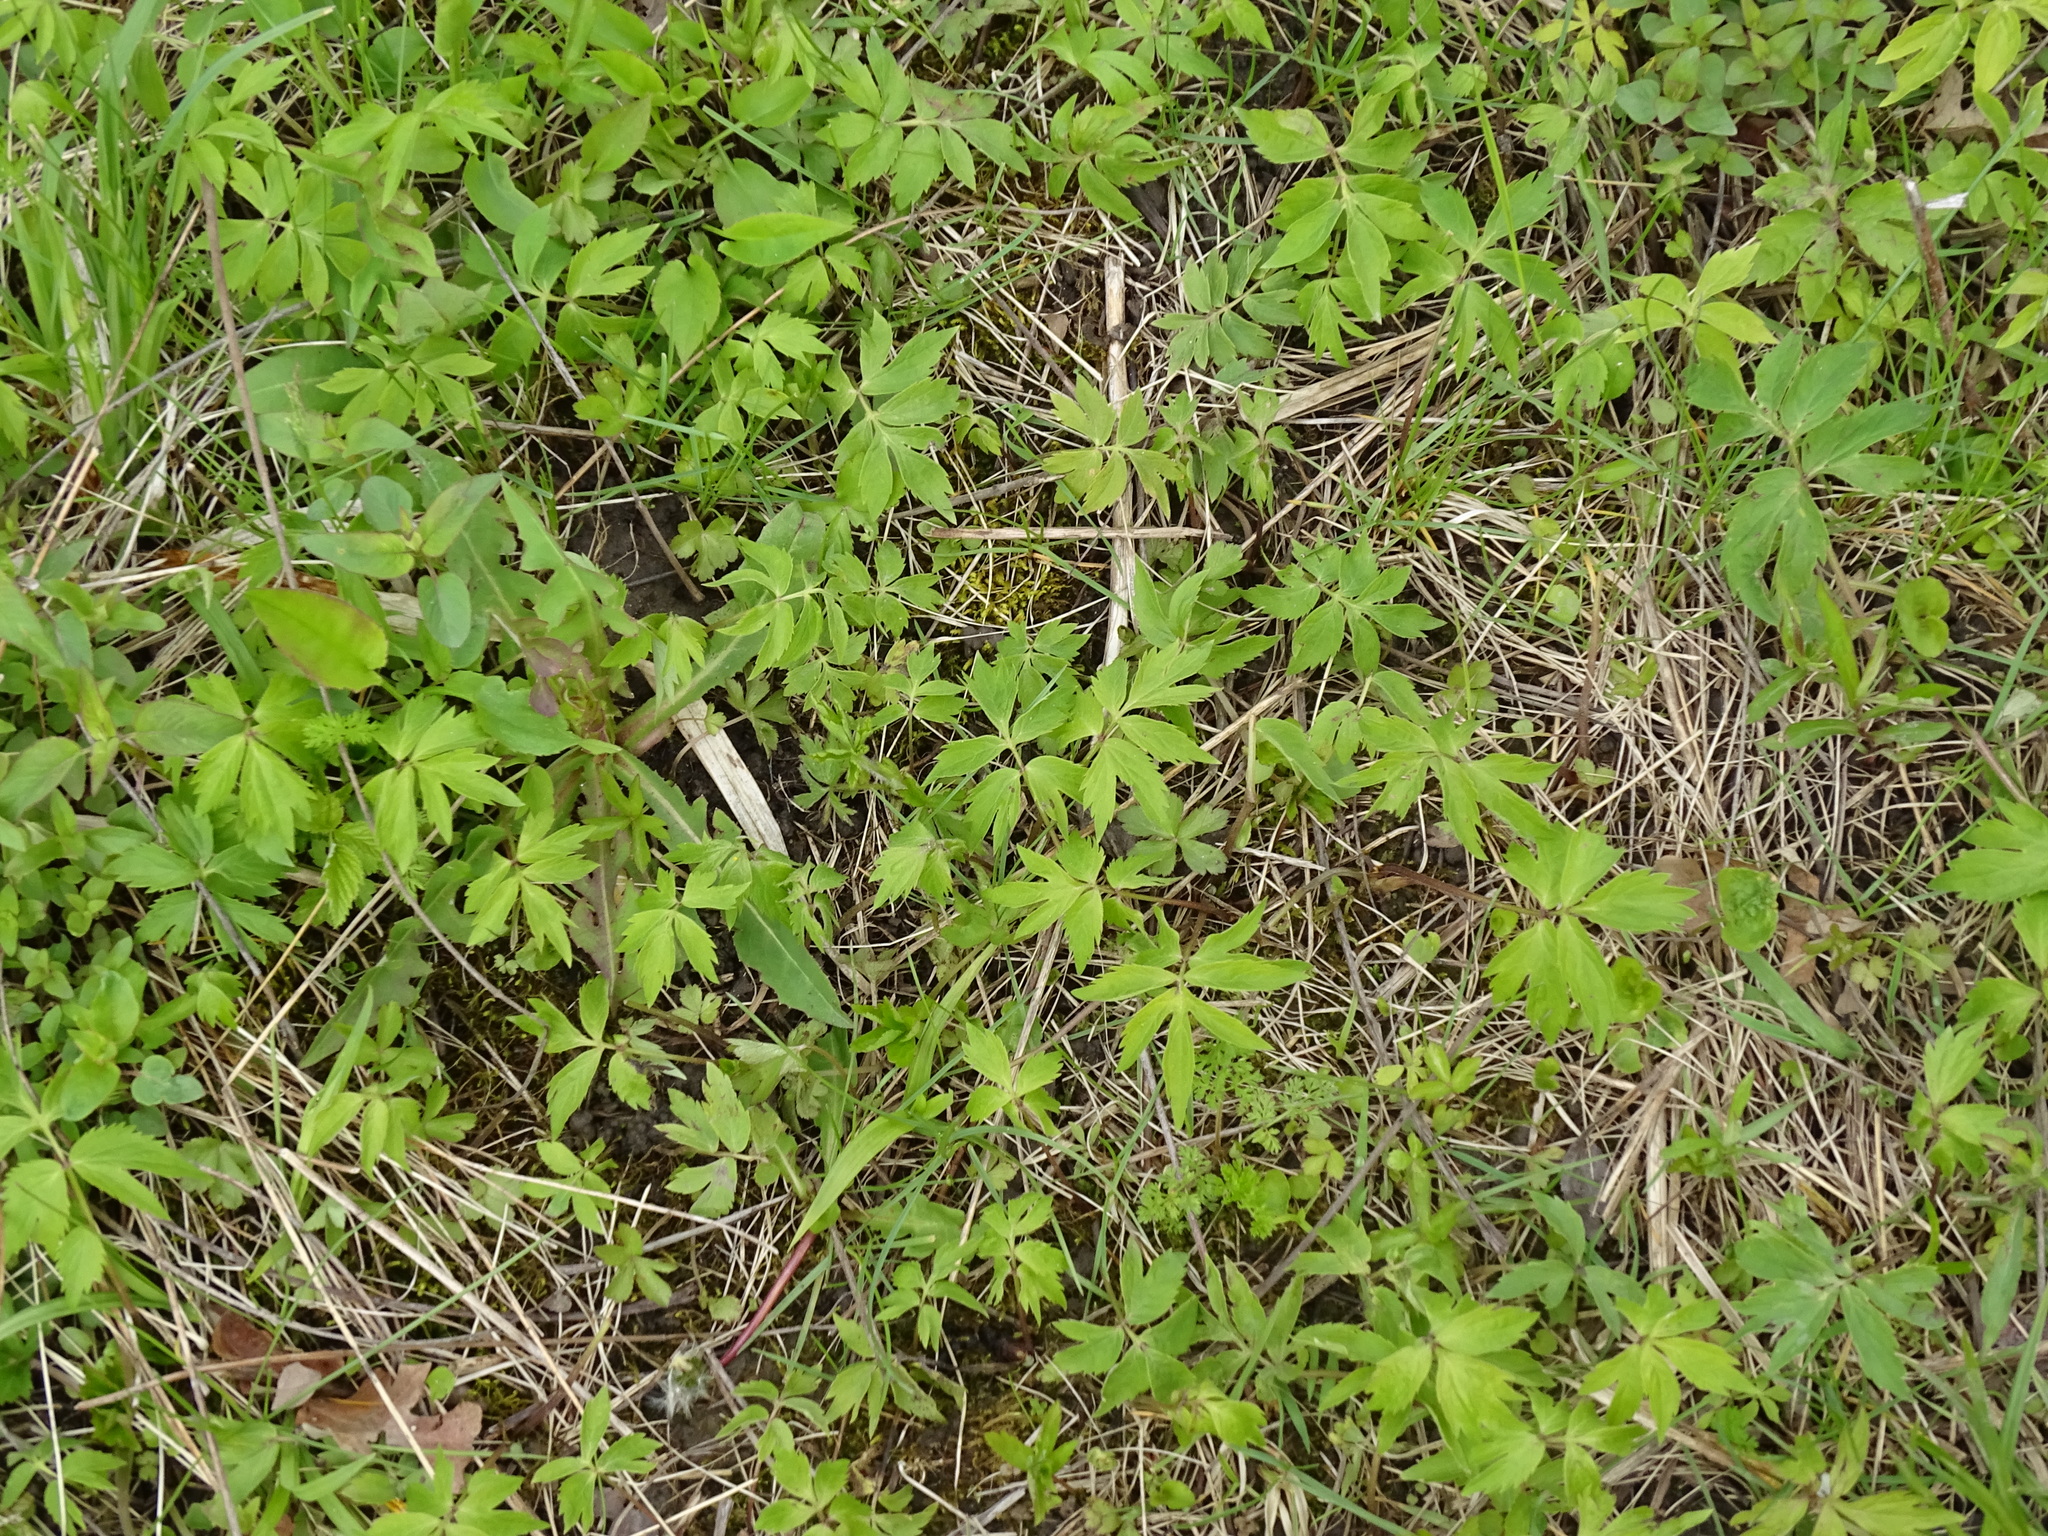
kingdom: Plantae
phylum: Tracheophyta
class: Magnoliopsida
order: Boraginales
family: Hydrophyllaceae
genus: Hydrophyllum
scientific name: Hydrophyllum virginianum
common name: Virginia waterleaf
